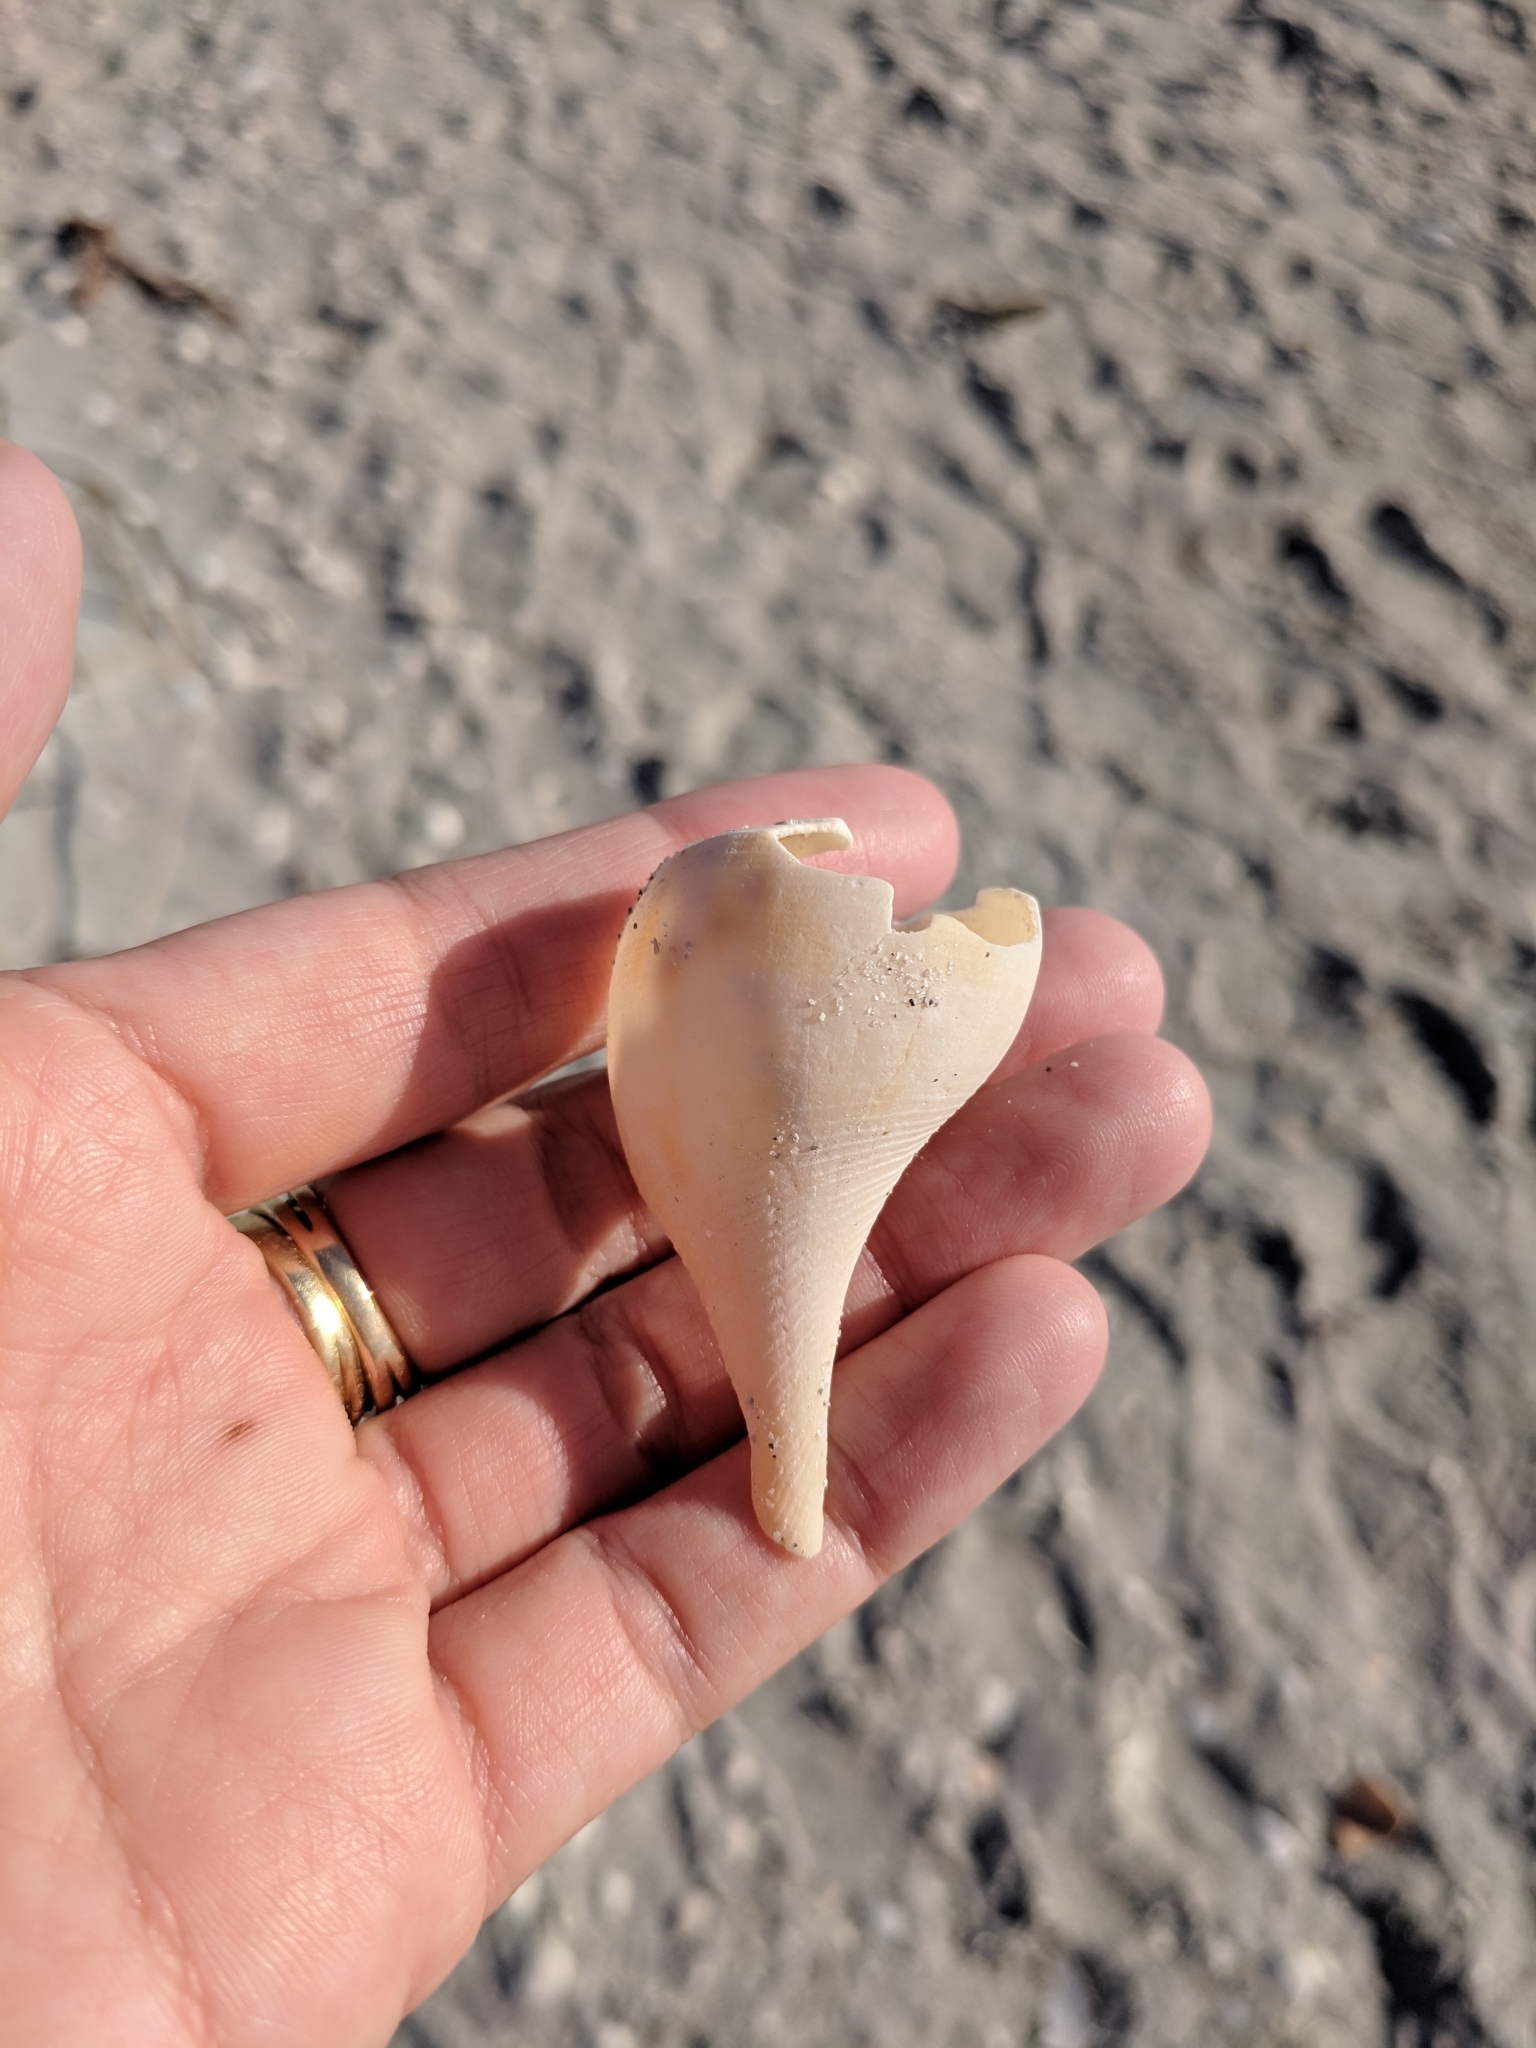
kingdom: Animalia
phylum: Mollusca
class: Gastropoda
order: Littorinimorpha
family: Ficidae
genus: Ficus
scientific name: Ficus papyratia
